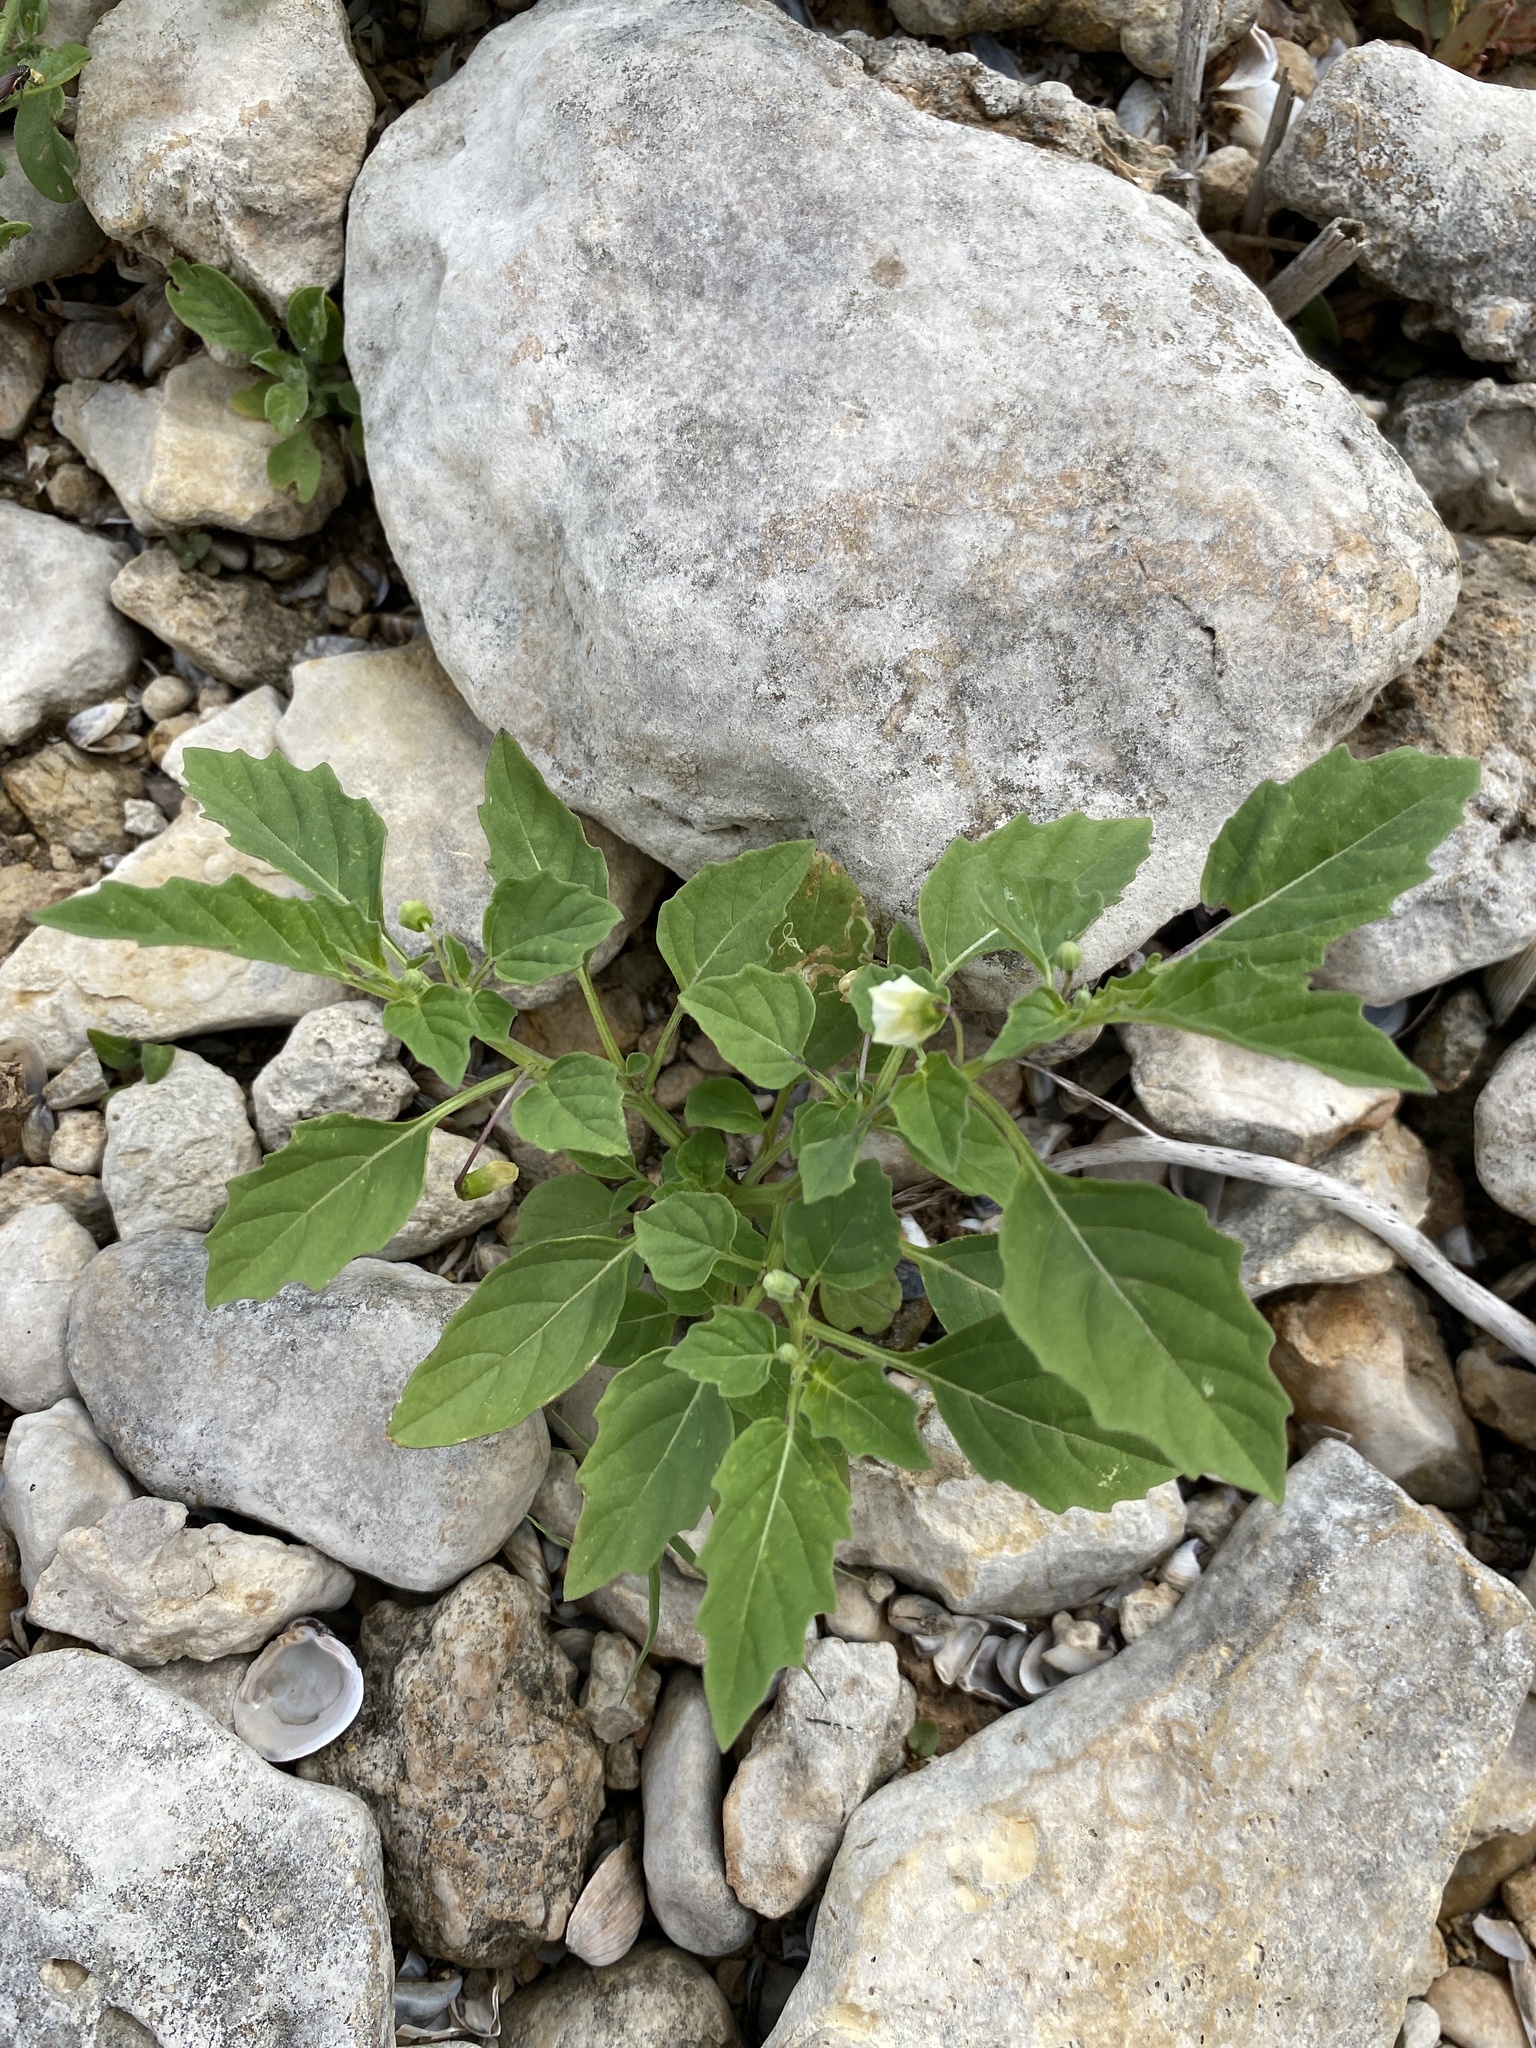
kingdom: Plantae
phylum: Tracheophyta
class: Magnoliopsida
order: Solanales
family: Solanaceae
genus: Physalis
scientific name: Physalis angulata
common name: Angular winter-cherry
